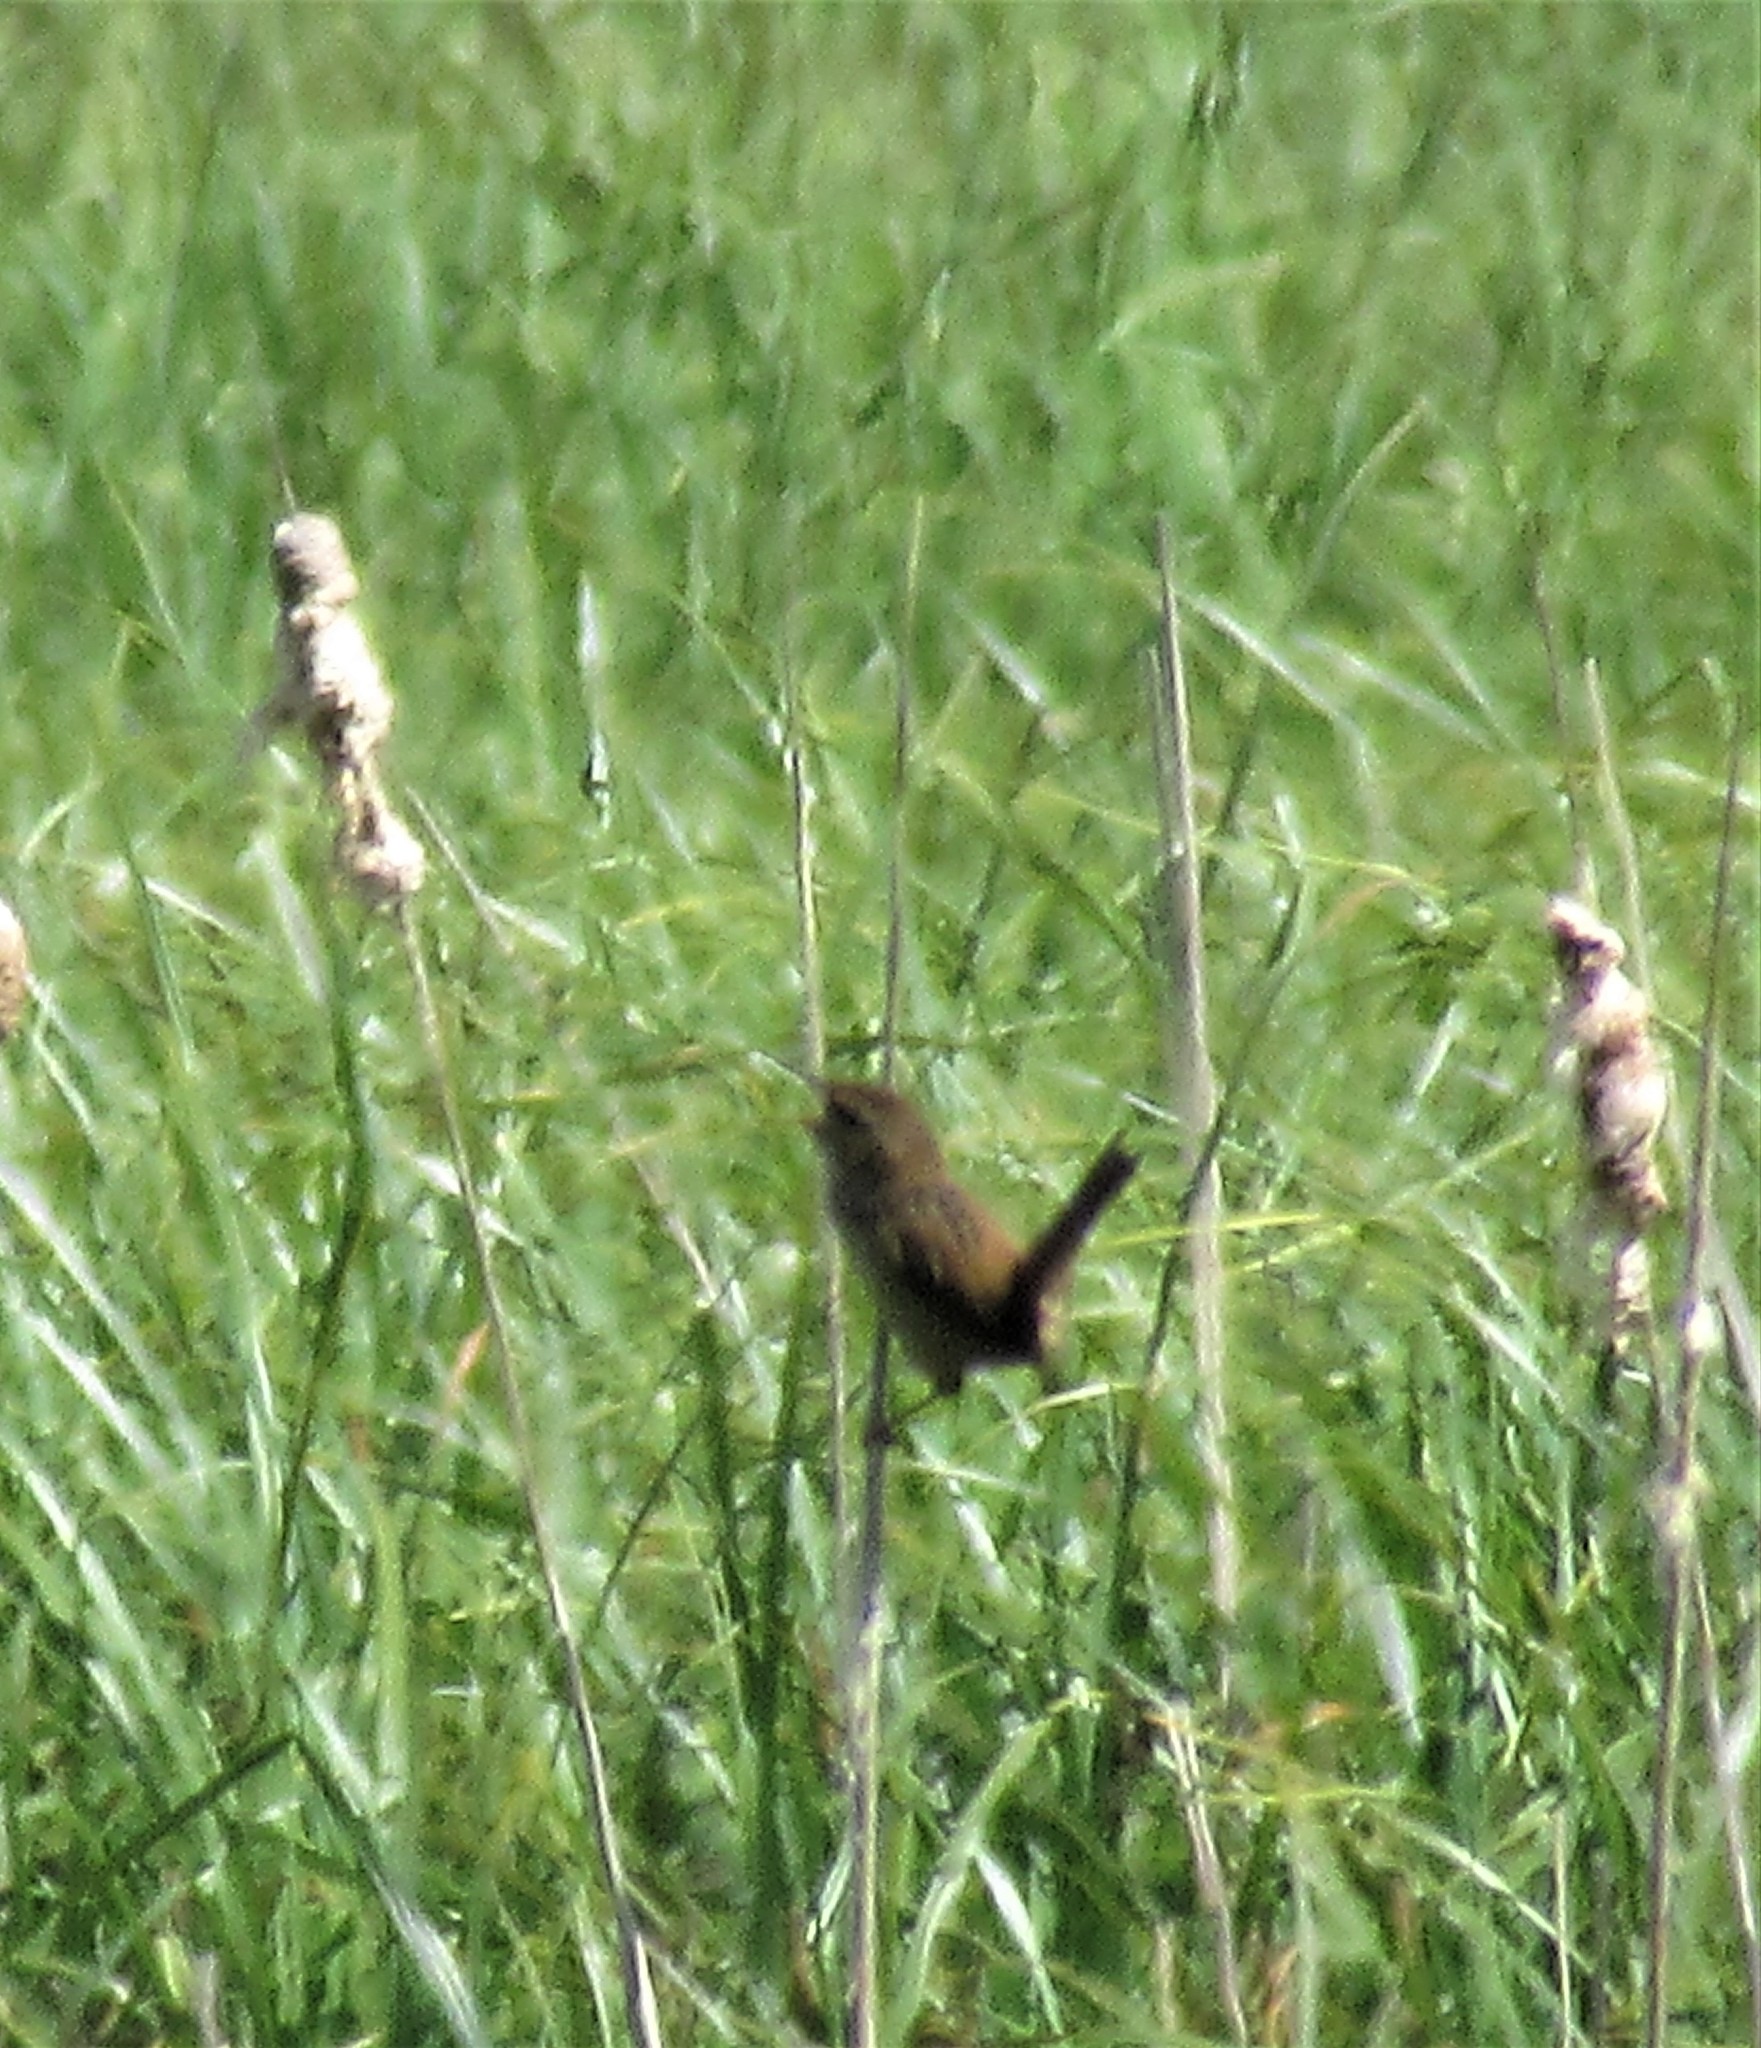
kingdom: Animalia
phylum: Chordata
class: Aves
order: Passeriformes
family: Troglodytidae
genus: Cistothorus
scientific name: Cistothorus palustris
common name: Marsh wren
